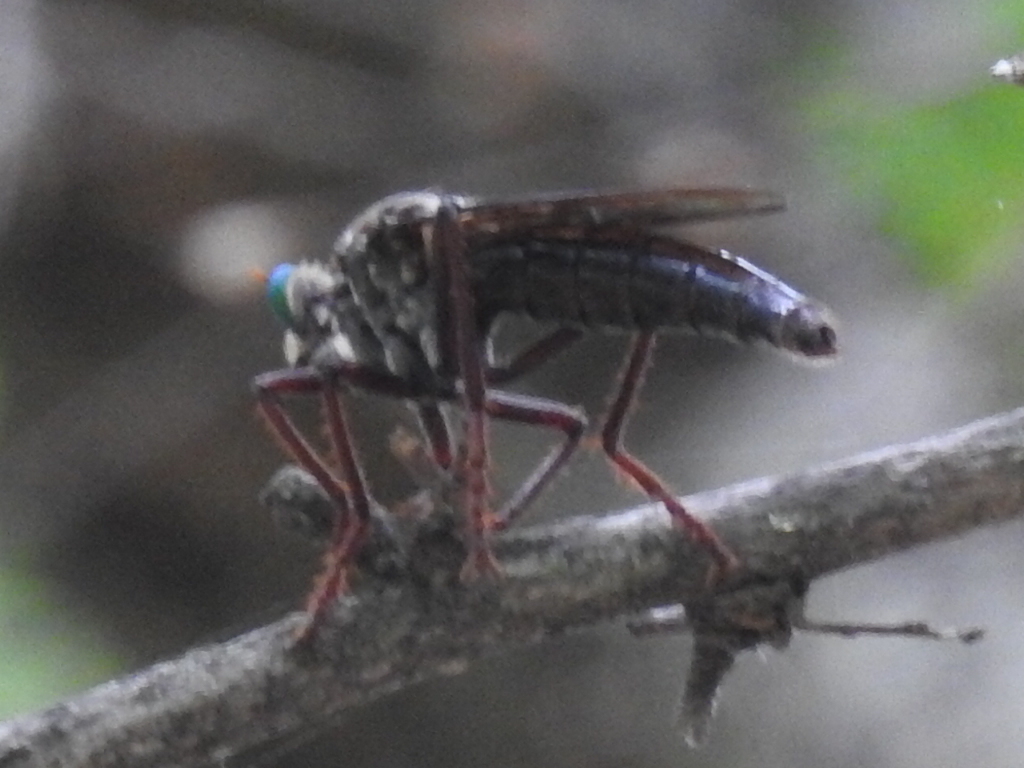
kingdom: Animalia
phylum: Arthropoda
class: Insecta
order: Diptera
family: Asilidae
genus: Microstylum
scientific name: Microstylum morosum
